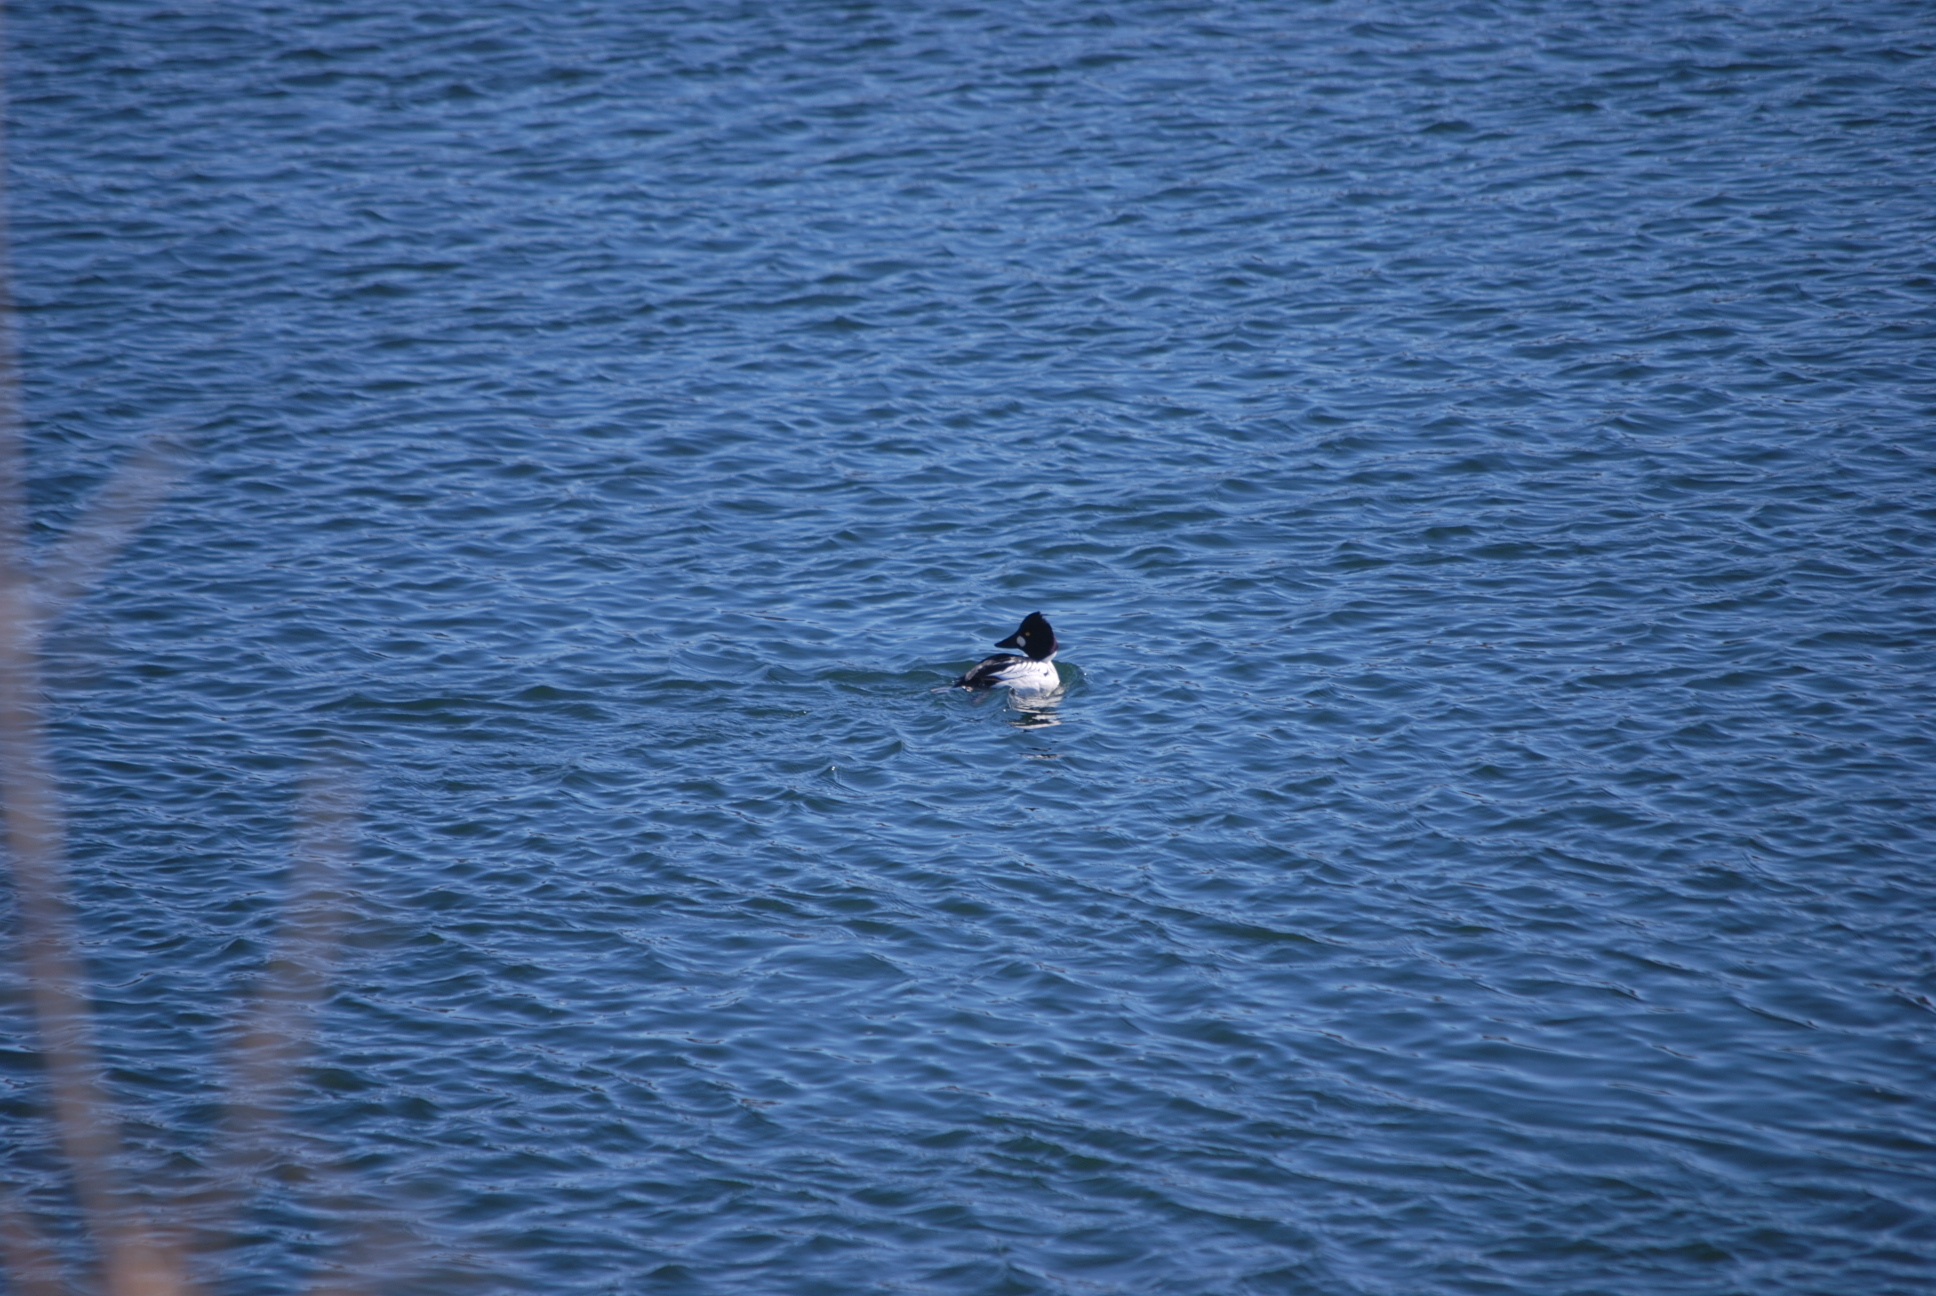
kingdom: Animalia
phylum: Chordata
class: Aves
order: Anseriformes
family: Anatidae
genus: Bucephala
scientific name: Bucephala clangula
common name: Common goldeneye
